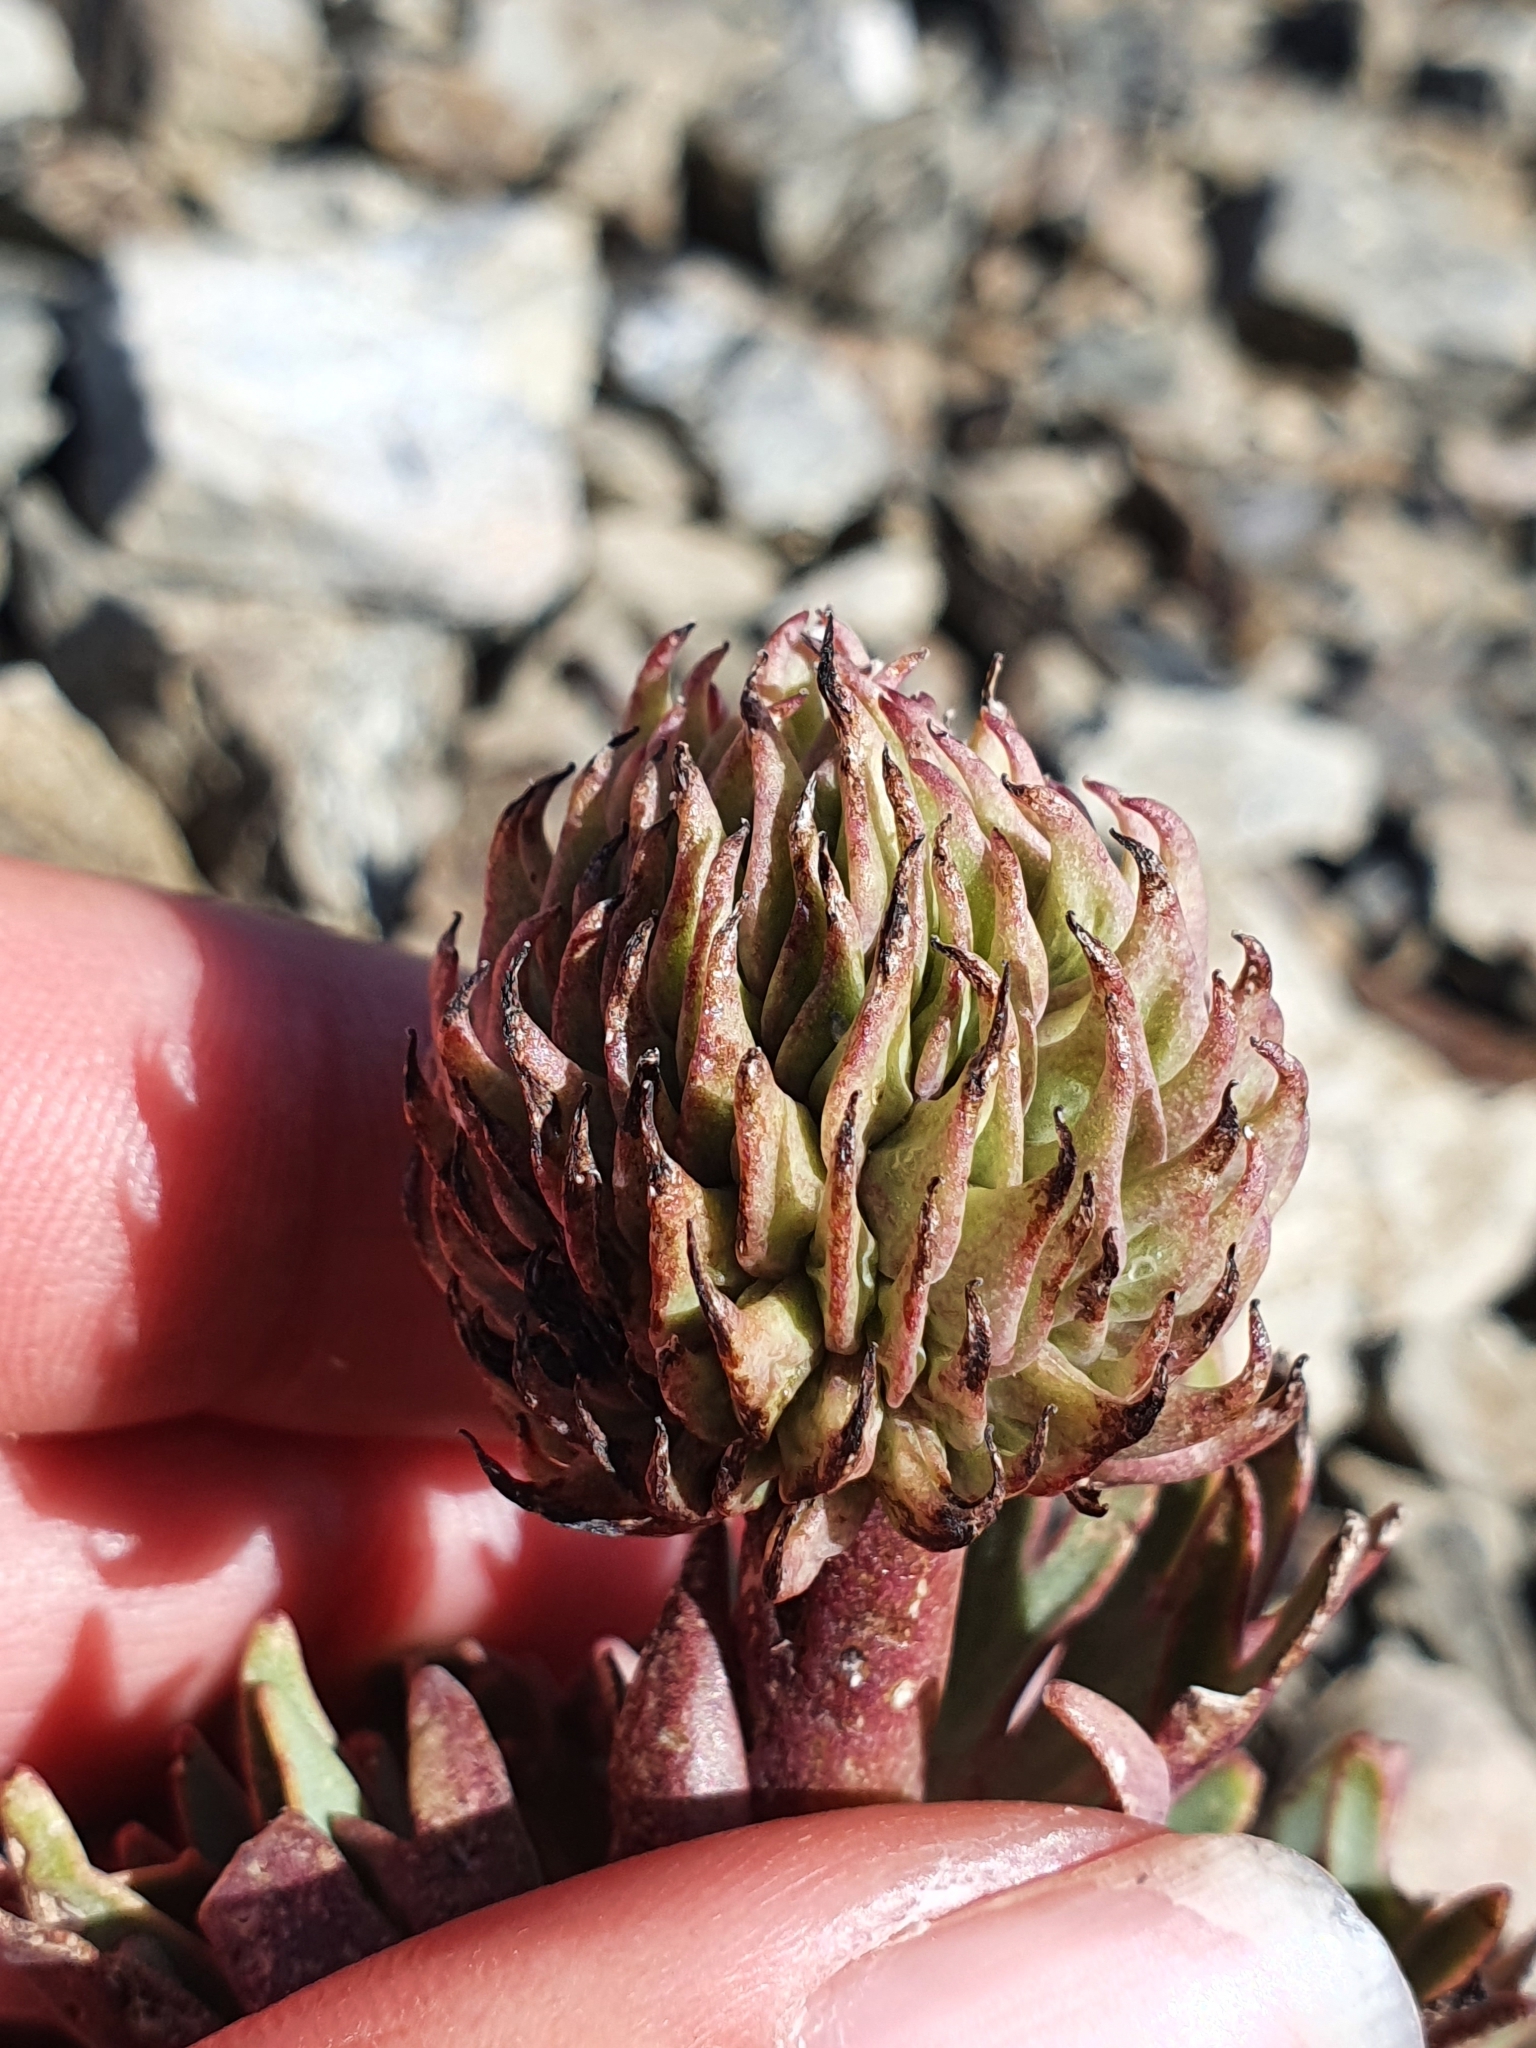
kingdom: Plantae
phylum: Tracheophyta
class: Magnoliopsida
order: Ranunculales
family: Ranunculaceae
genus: Ranunculus
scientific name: Ranunculus haastii
